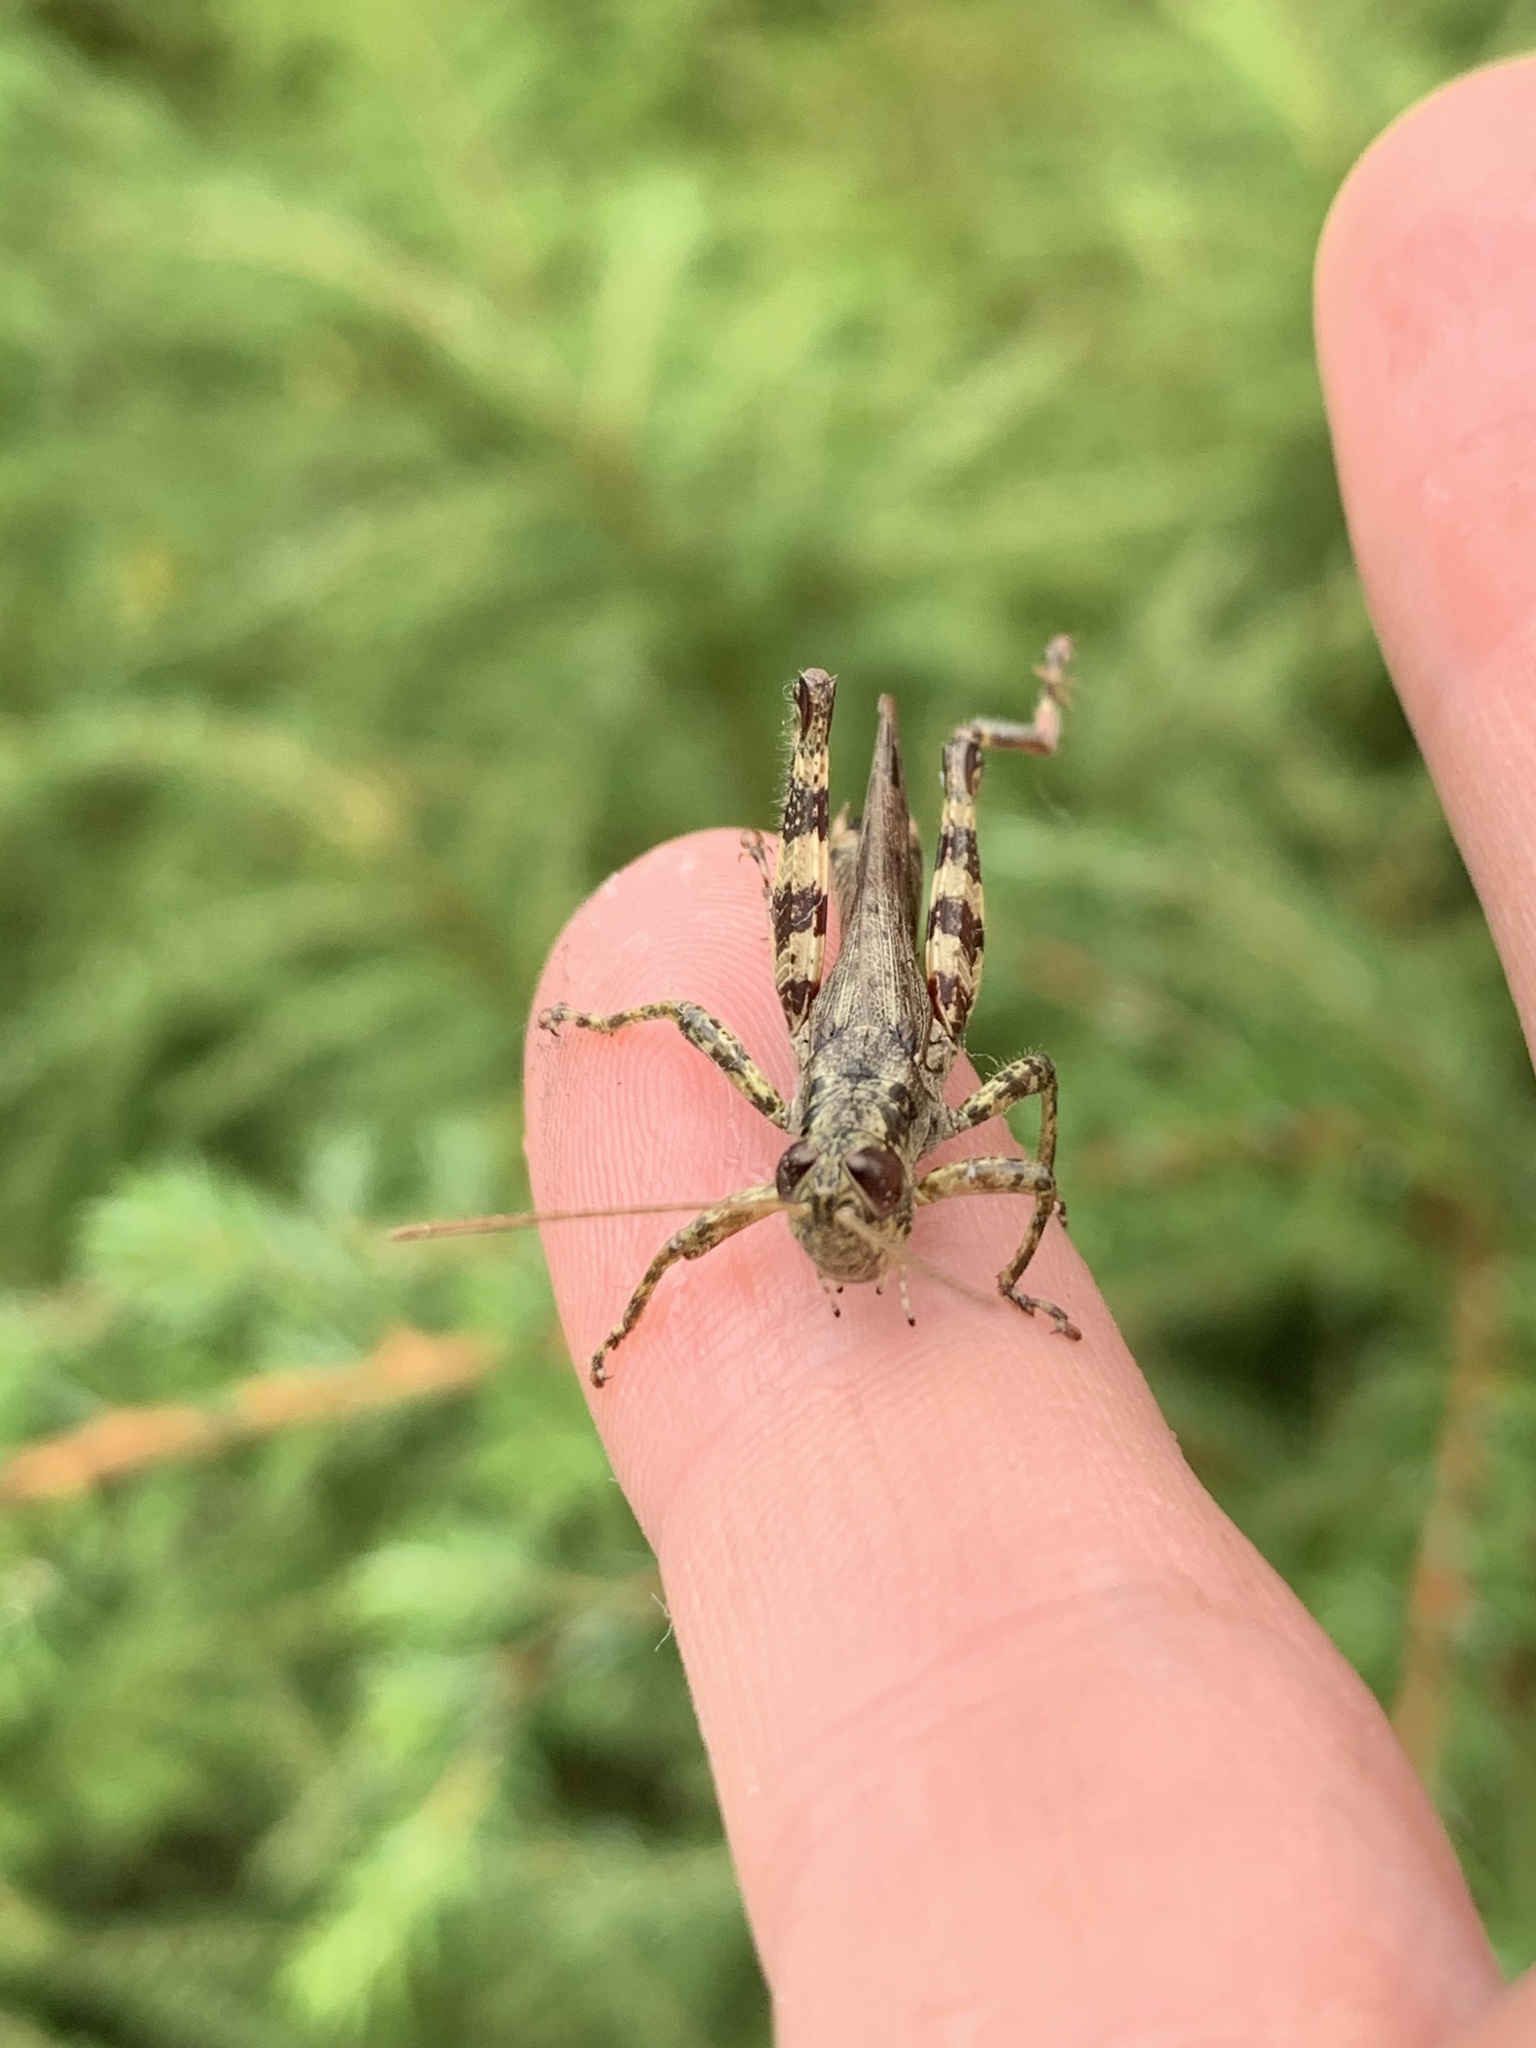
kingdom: Animalia
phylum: Arthropoda
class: Insecta
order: Orthoptera
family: Acrididae
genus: Melanoplus
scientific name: Melanoplus punctulatus
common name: Pine-tree spur-throat grasshopper
